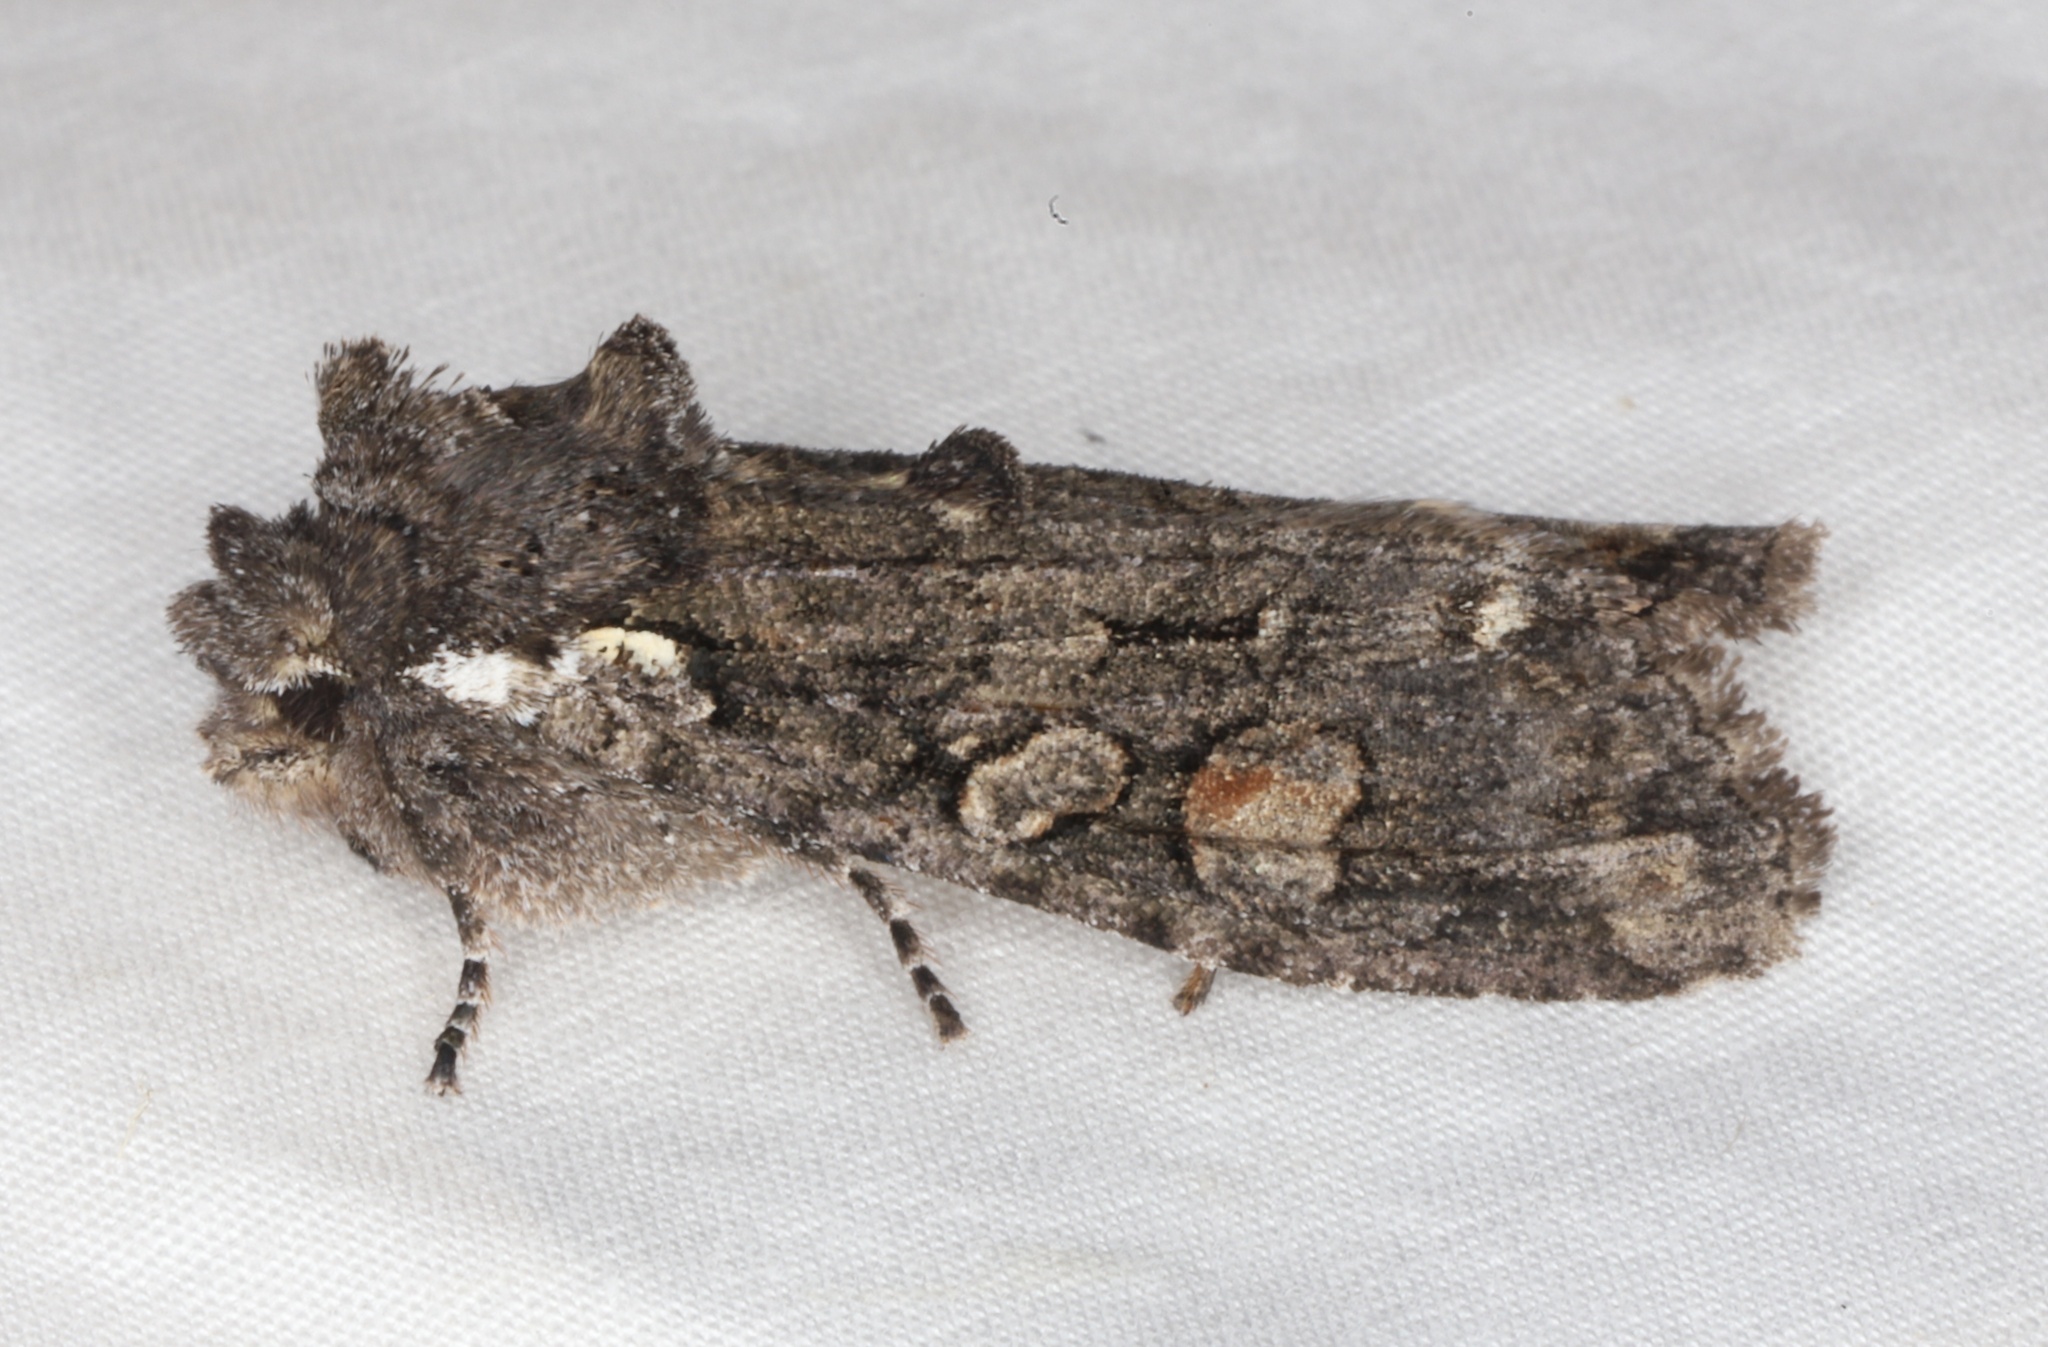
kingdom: Animalia
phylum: Arthropoda
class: Insecta
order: Lepidoptera
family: Noctuidae
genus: Lithophane
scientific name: Lithophane pexata
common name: Plush-naped pinion moth
